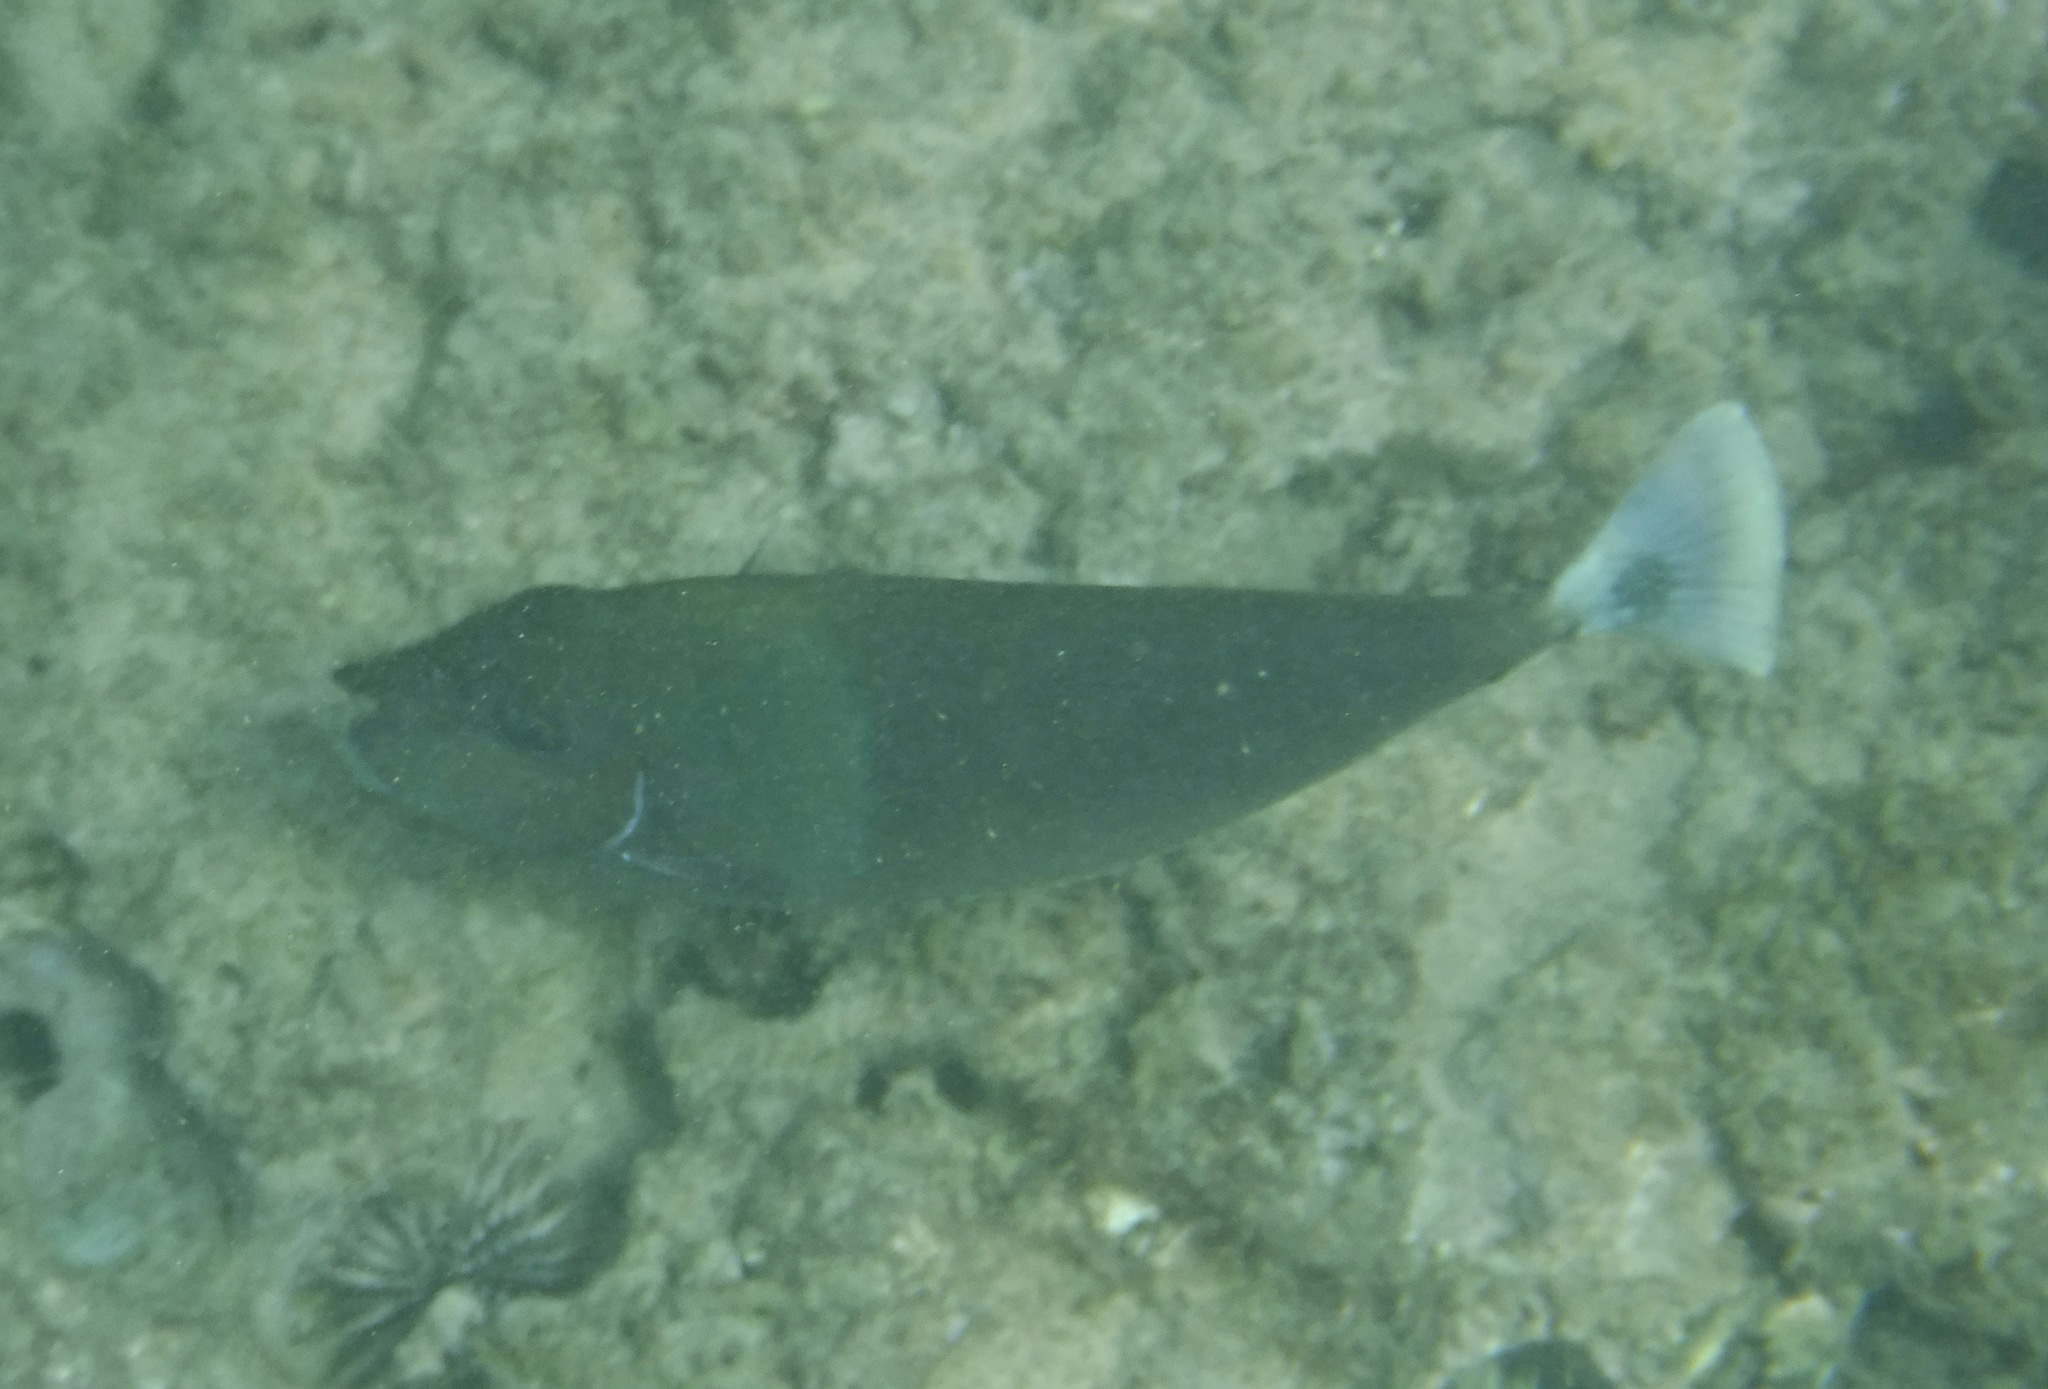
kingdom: Animalia
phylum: Chordata
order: Perciformes
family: Acanthuridae
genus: Naso
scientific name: Naso brevirostris
